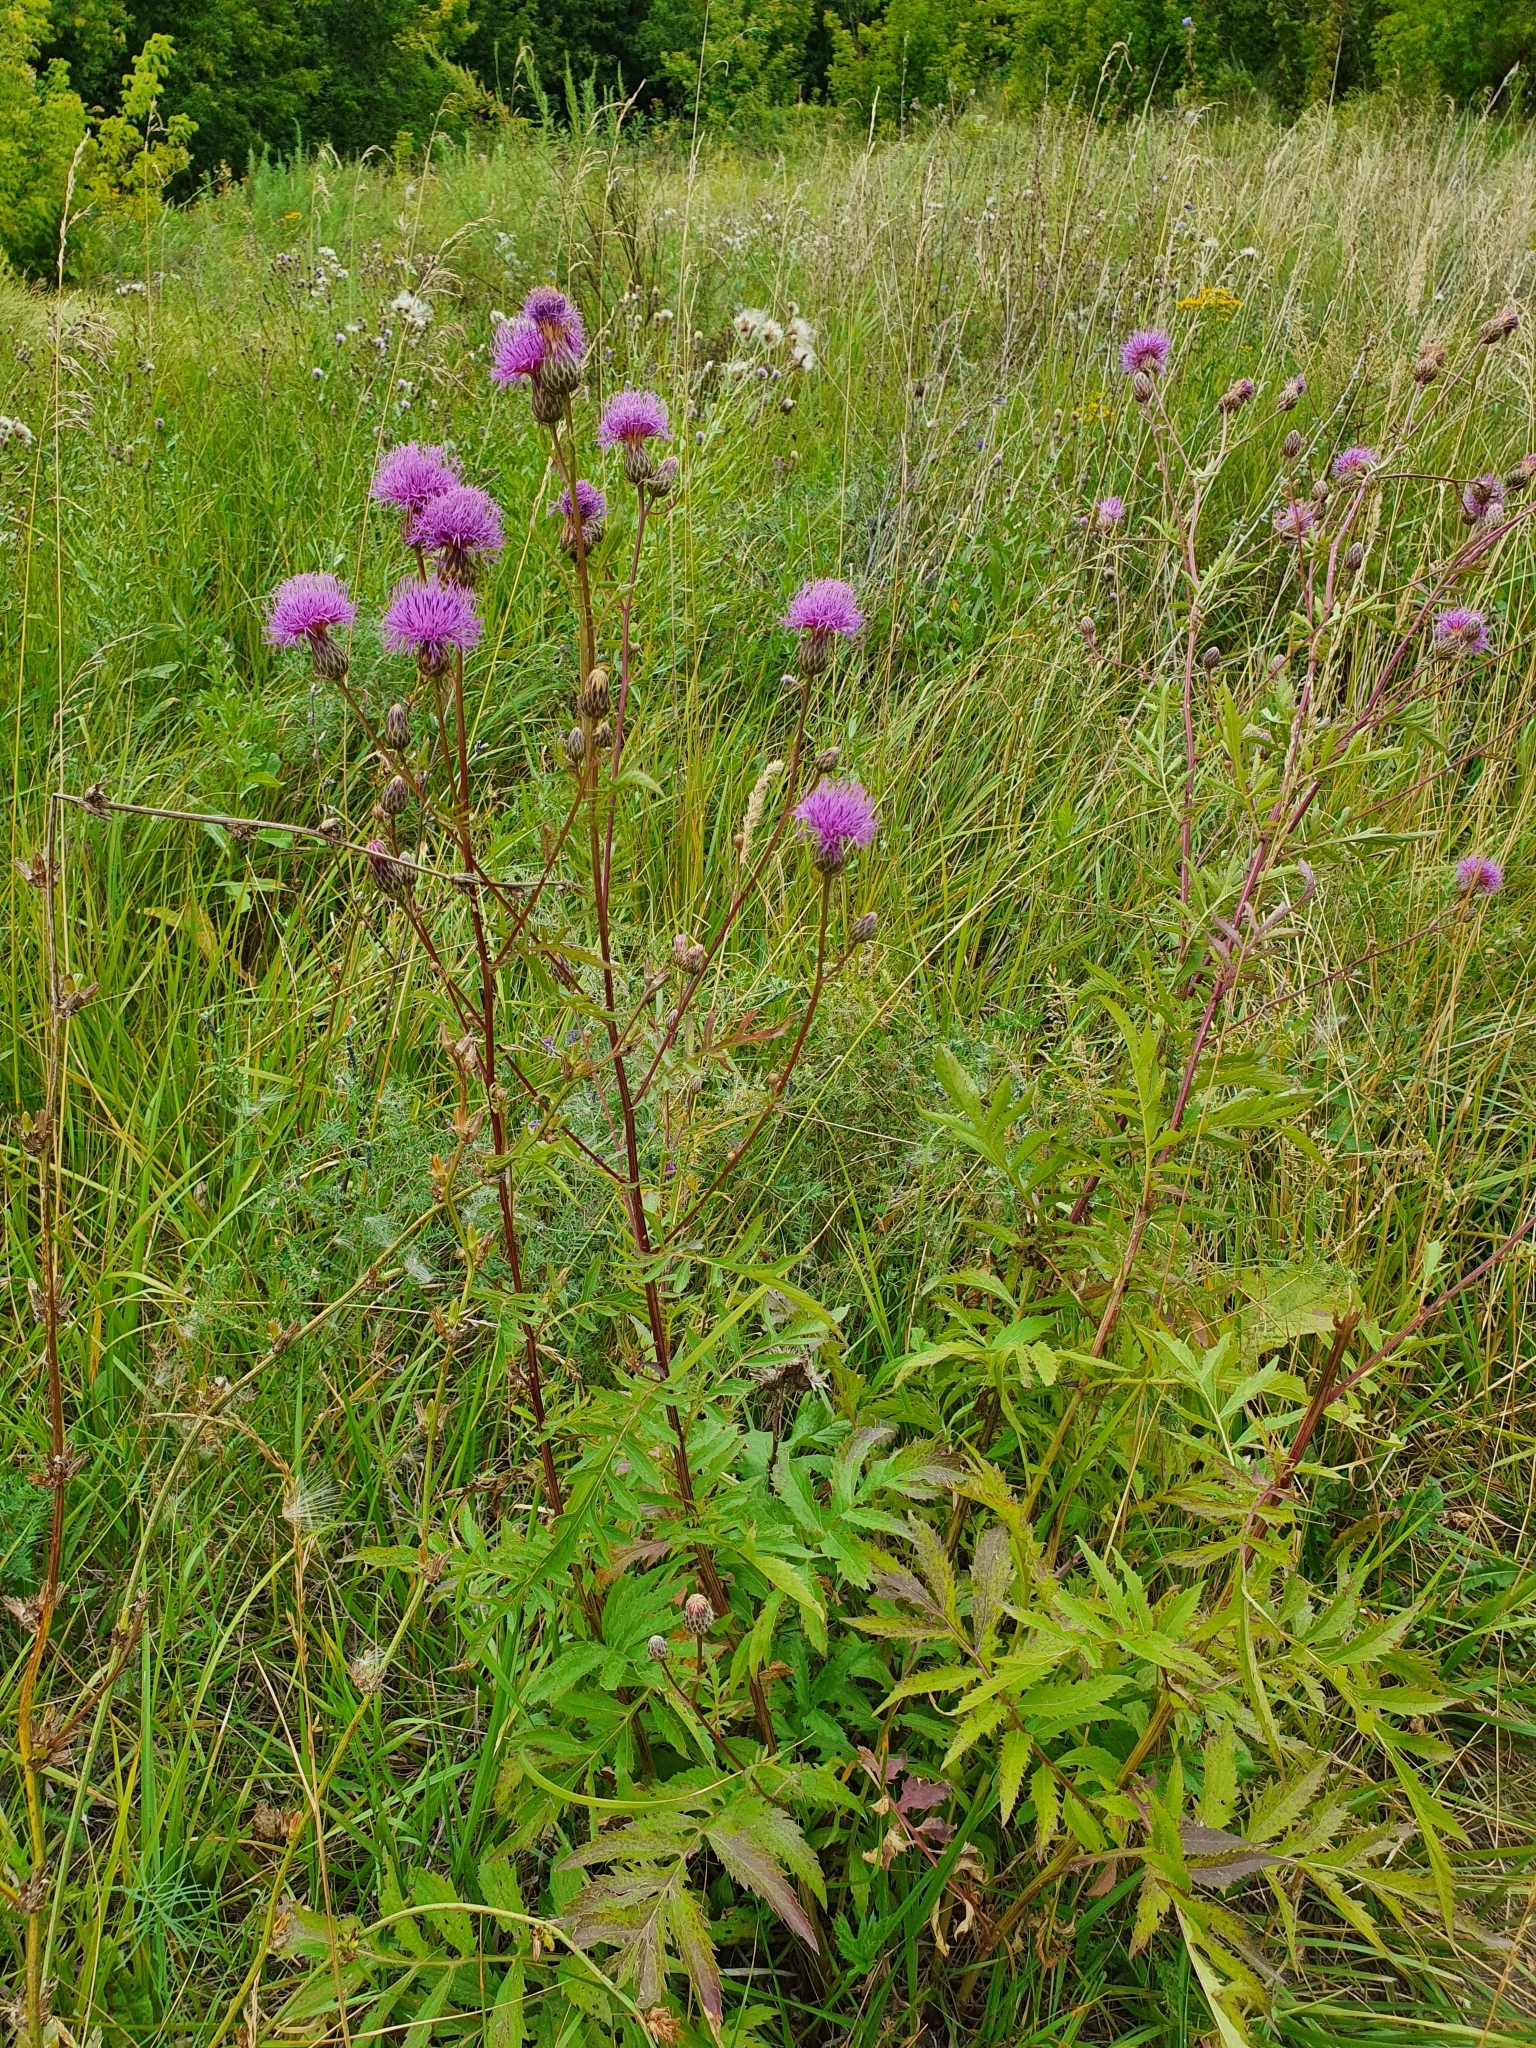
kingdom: Plantae
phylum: Tracheophyta
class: Magnoliopsida
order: Asterales
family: Asteraceae
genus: Serratula
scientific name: Serratula coronata
